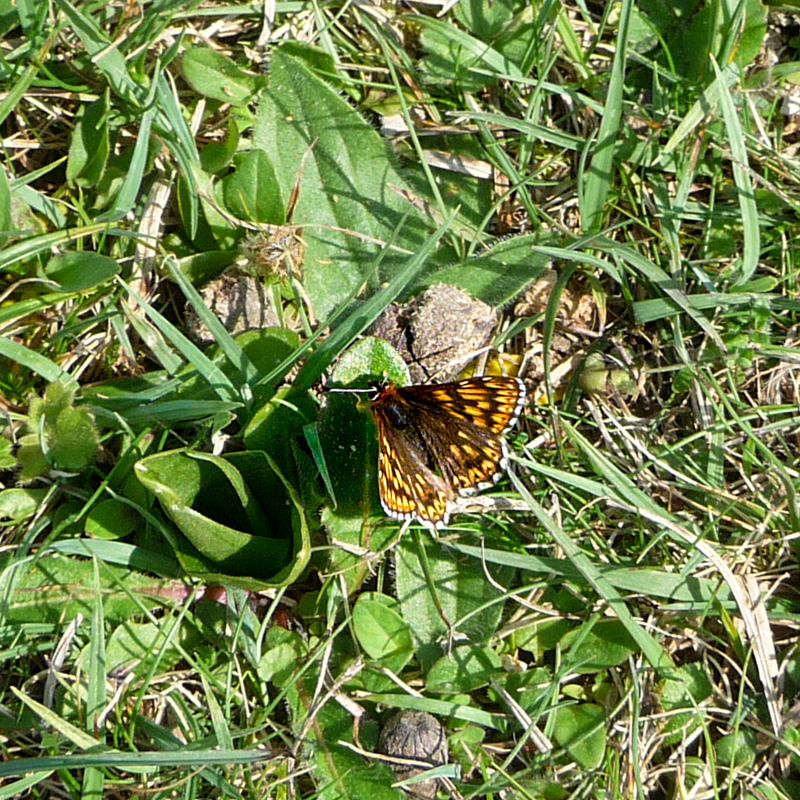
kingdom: Animalia
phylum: Arthropoda
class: Insecta
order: Lepidoptera
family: Riodinidae
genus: Hamearis
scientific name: Hamearis lucina
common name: Duke of burgundy fritillary
